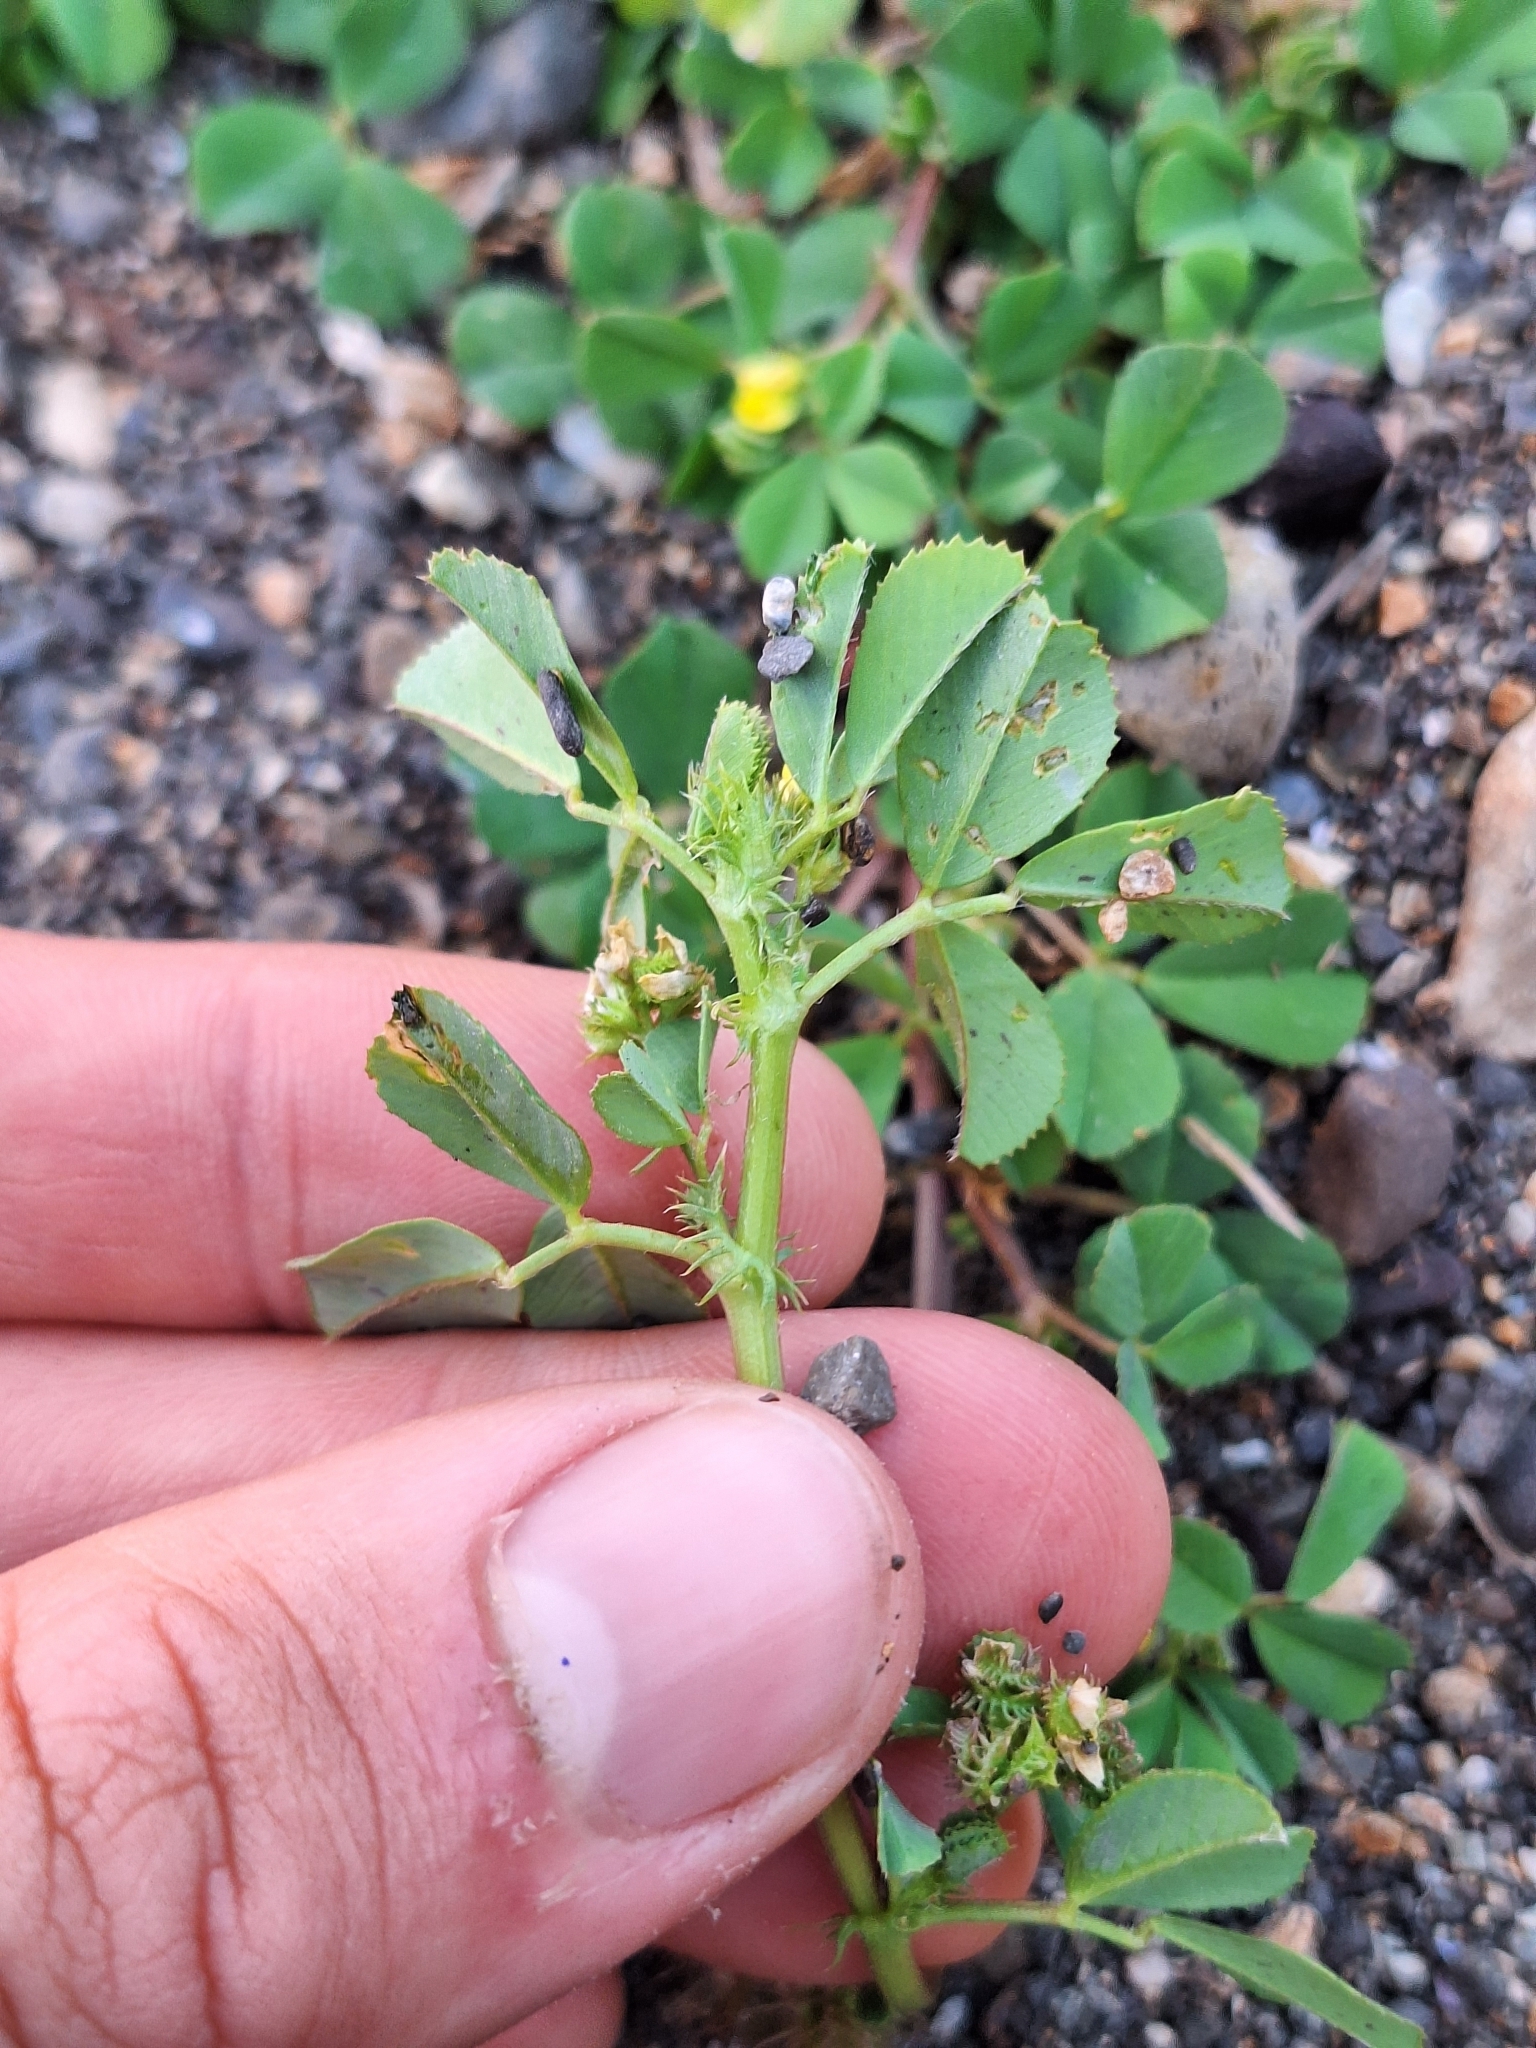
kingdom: Plantae
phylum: Tracheophyta
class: Magnoliopsida
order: Fabales
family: Fabaceae
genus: Medicago
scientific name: Medicago polymorpha
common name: Burclover
